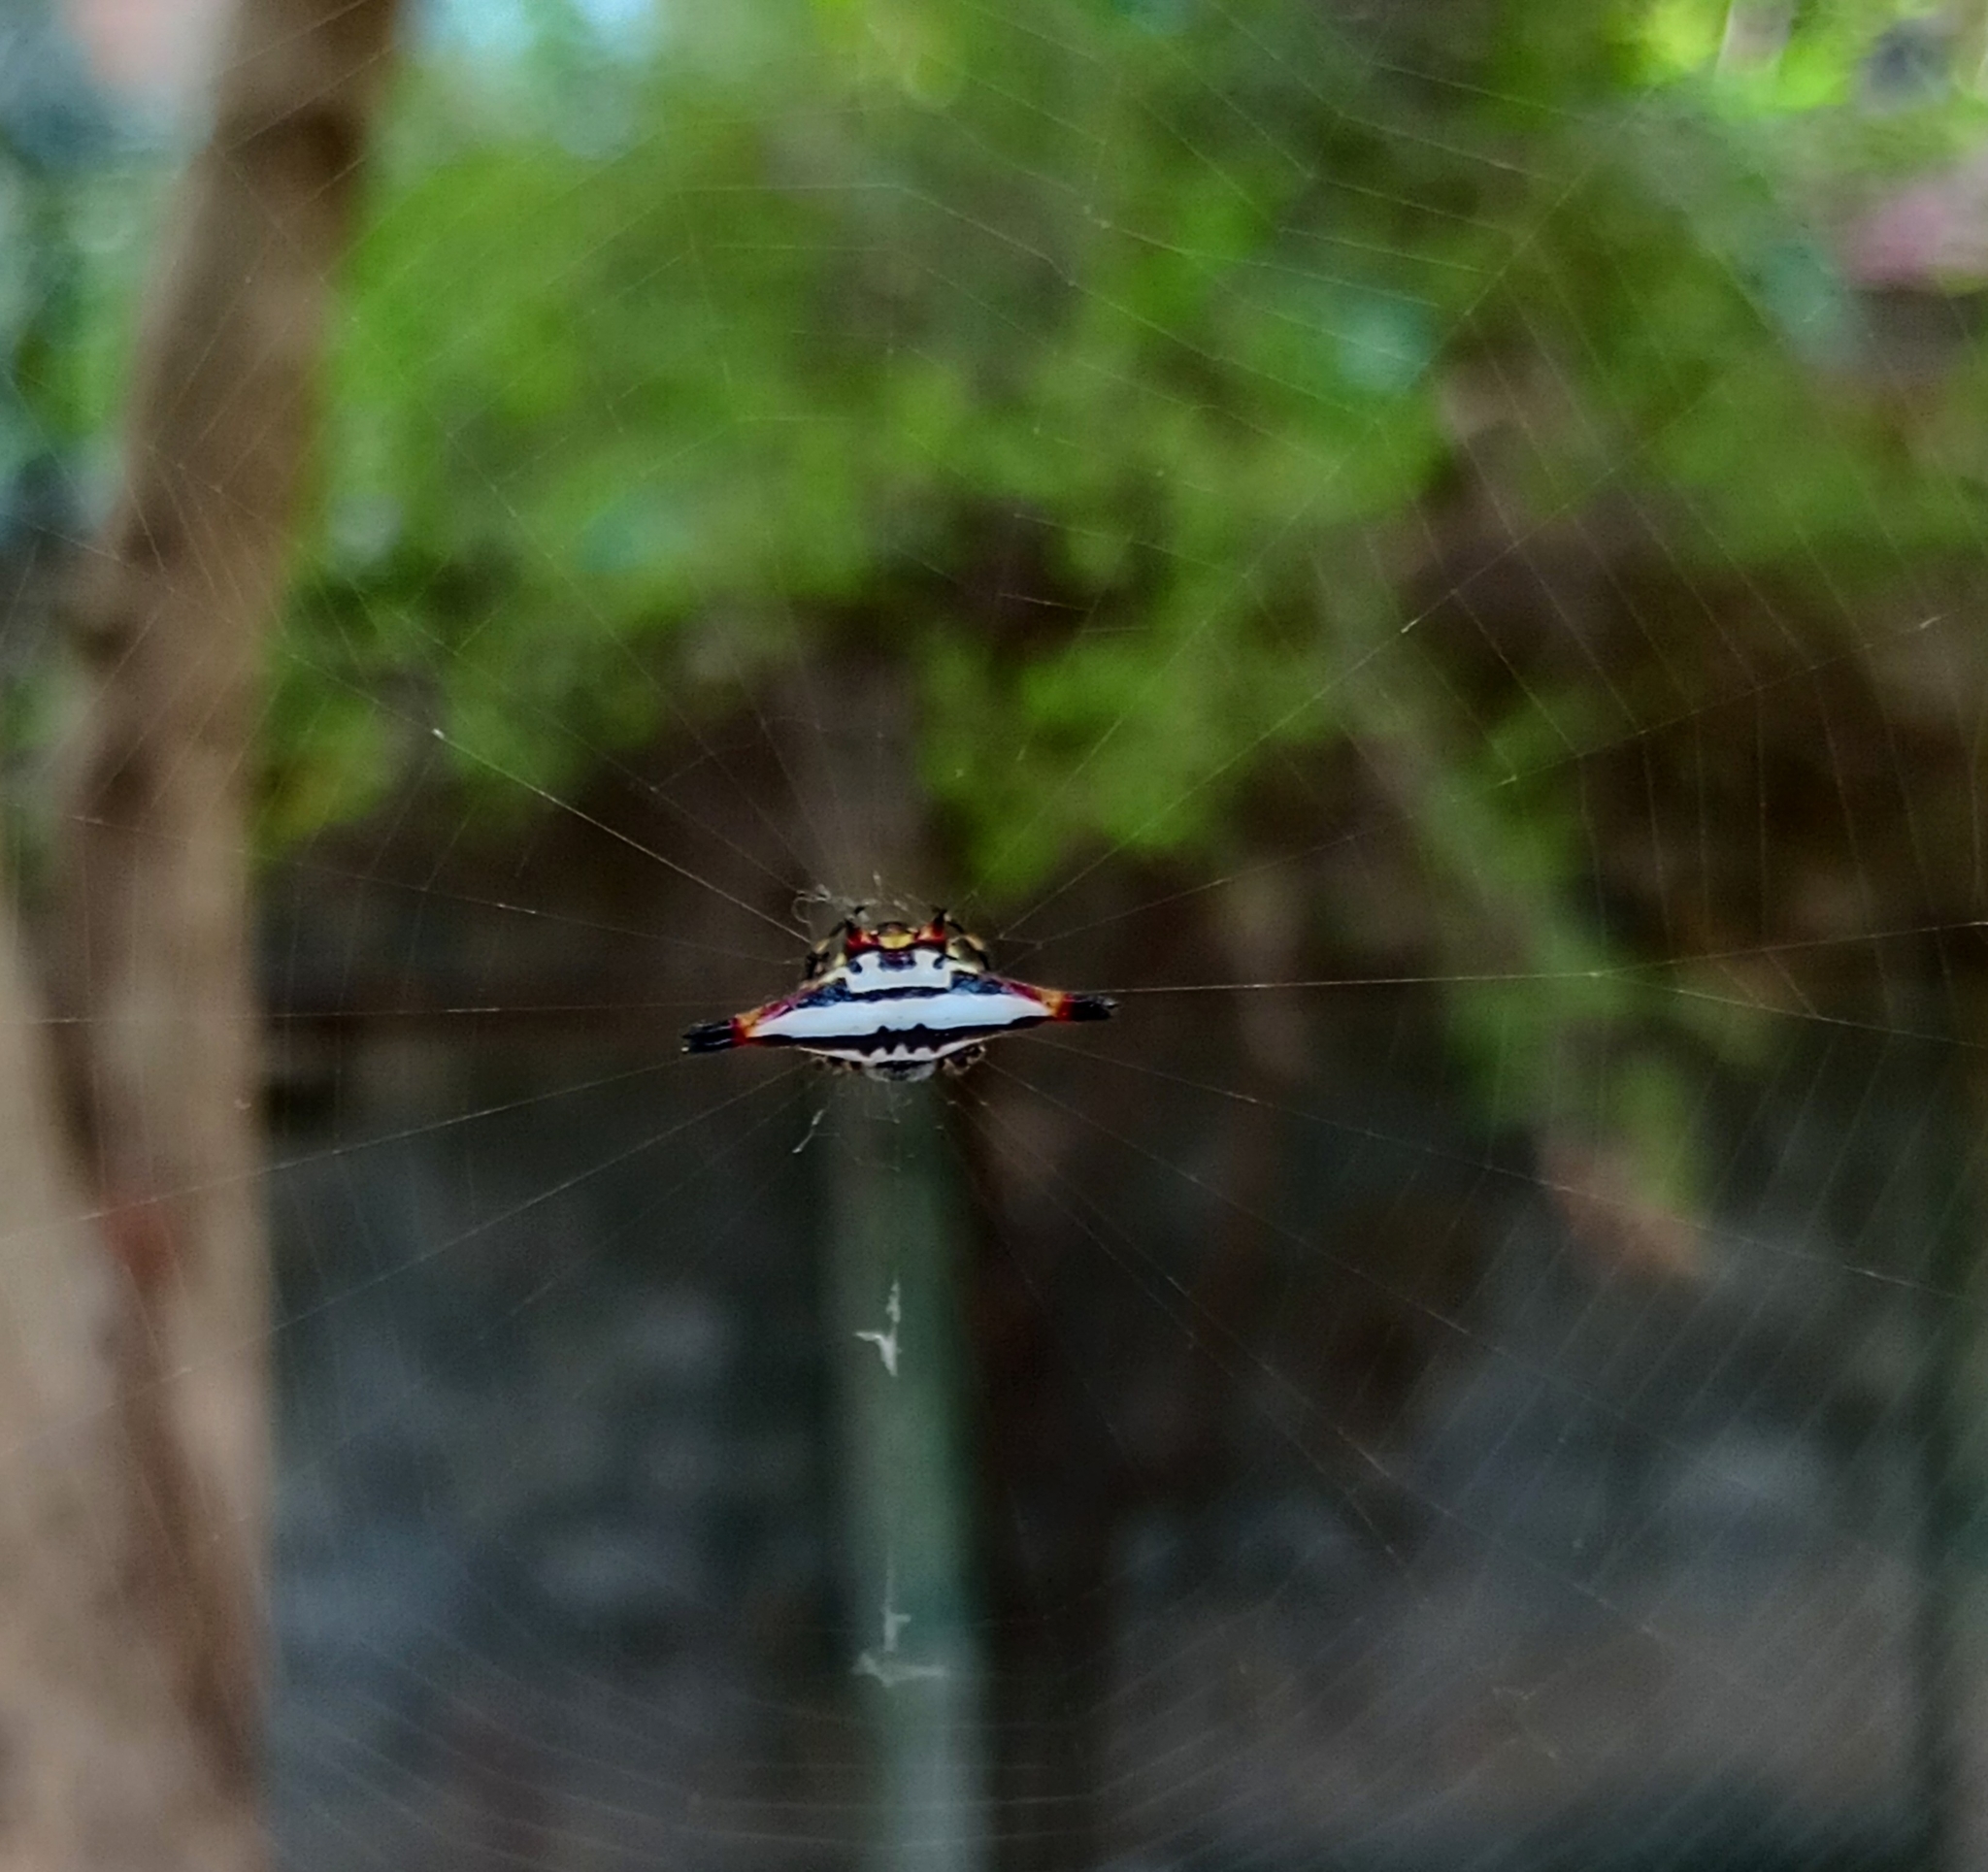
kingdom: Animalia
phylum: Arthropoda
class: Arachnida
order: Araneae
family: Araneidae
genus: Gasteracantha
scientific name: Gasteracantha geminata
